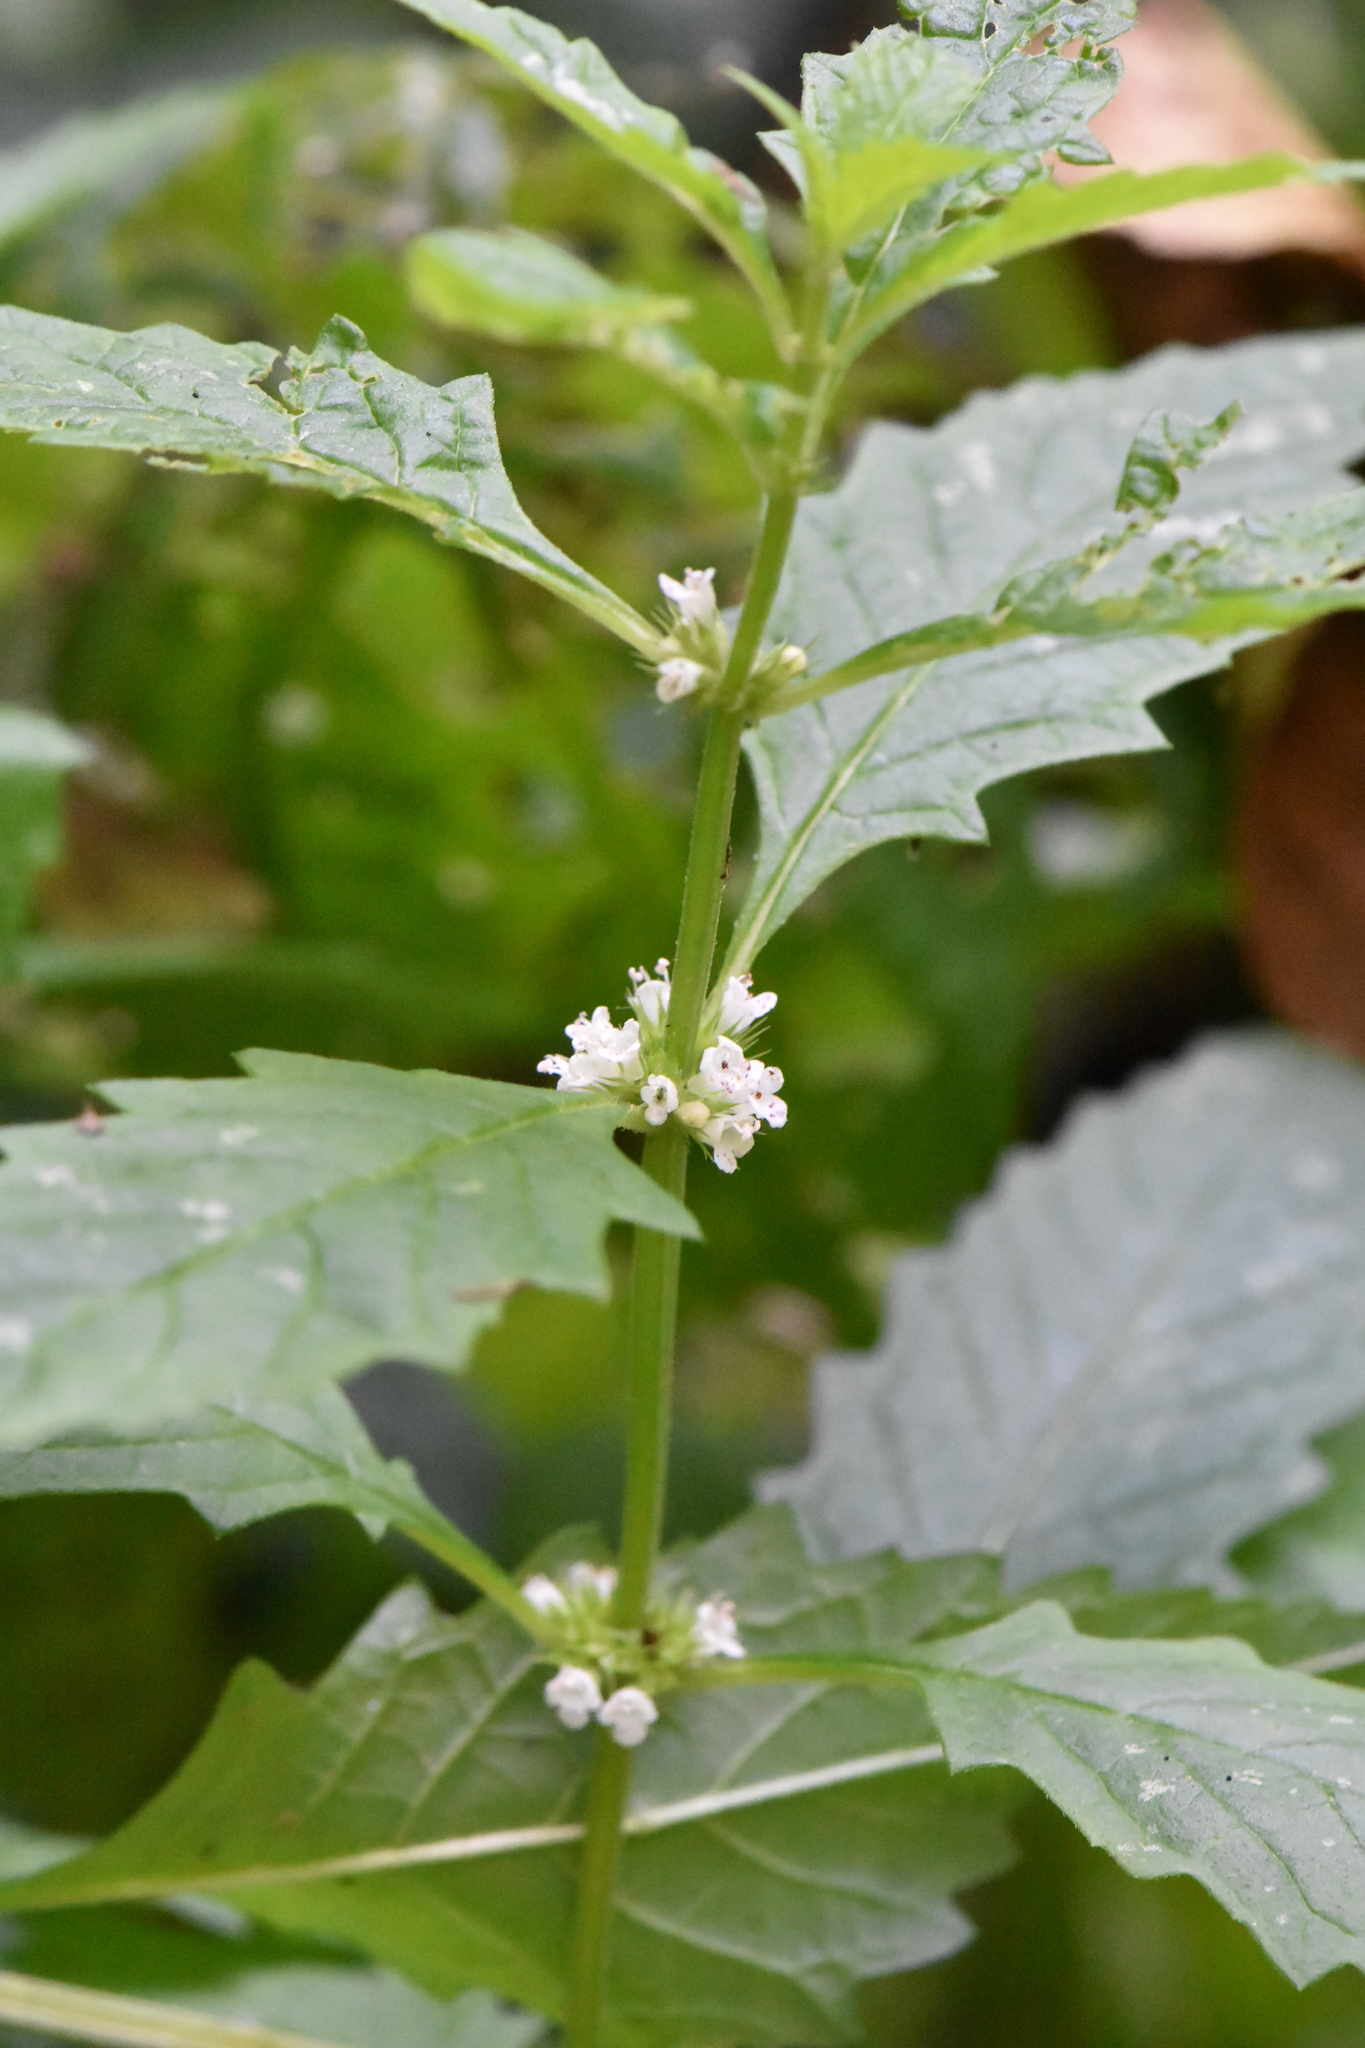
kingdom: Plantae
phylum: Tracheophyta
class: Magnoliopsida
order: Lamiales
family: Lamiaceae
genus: Lycopus
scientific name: Lycopus europaeus
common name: European bugleweed
